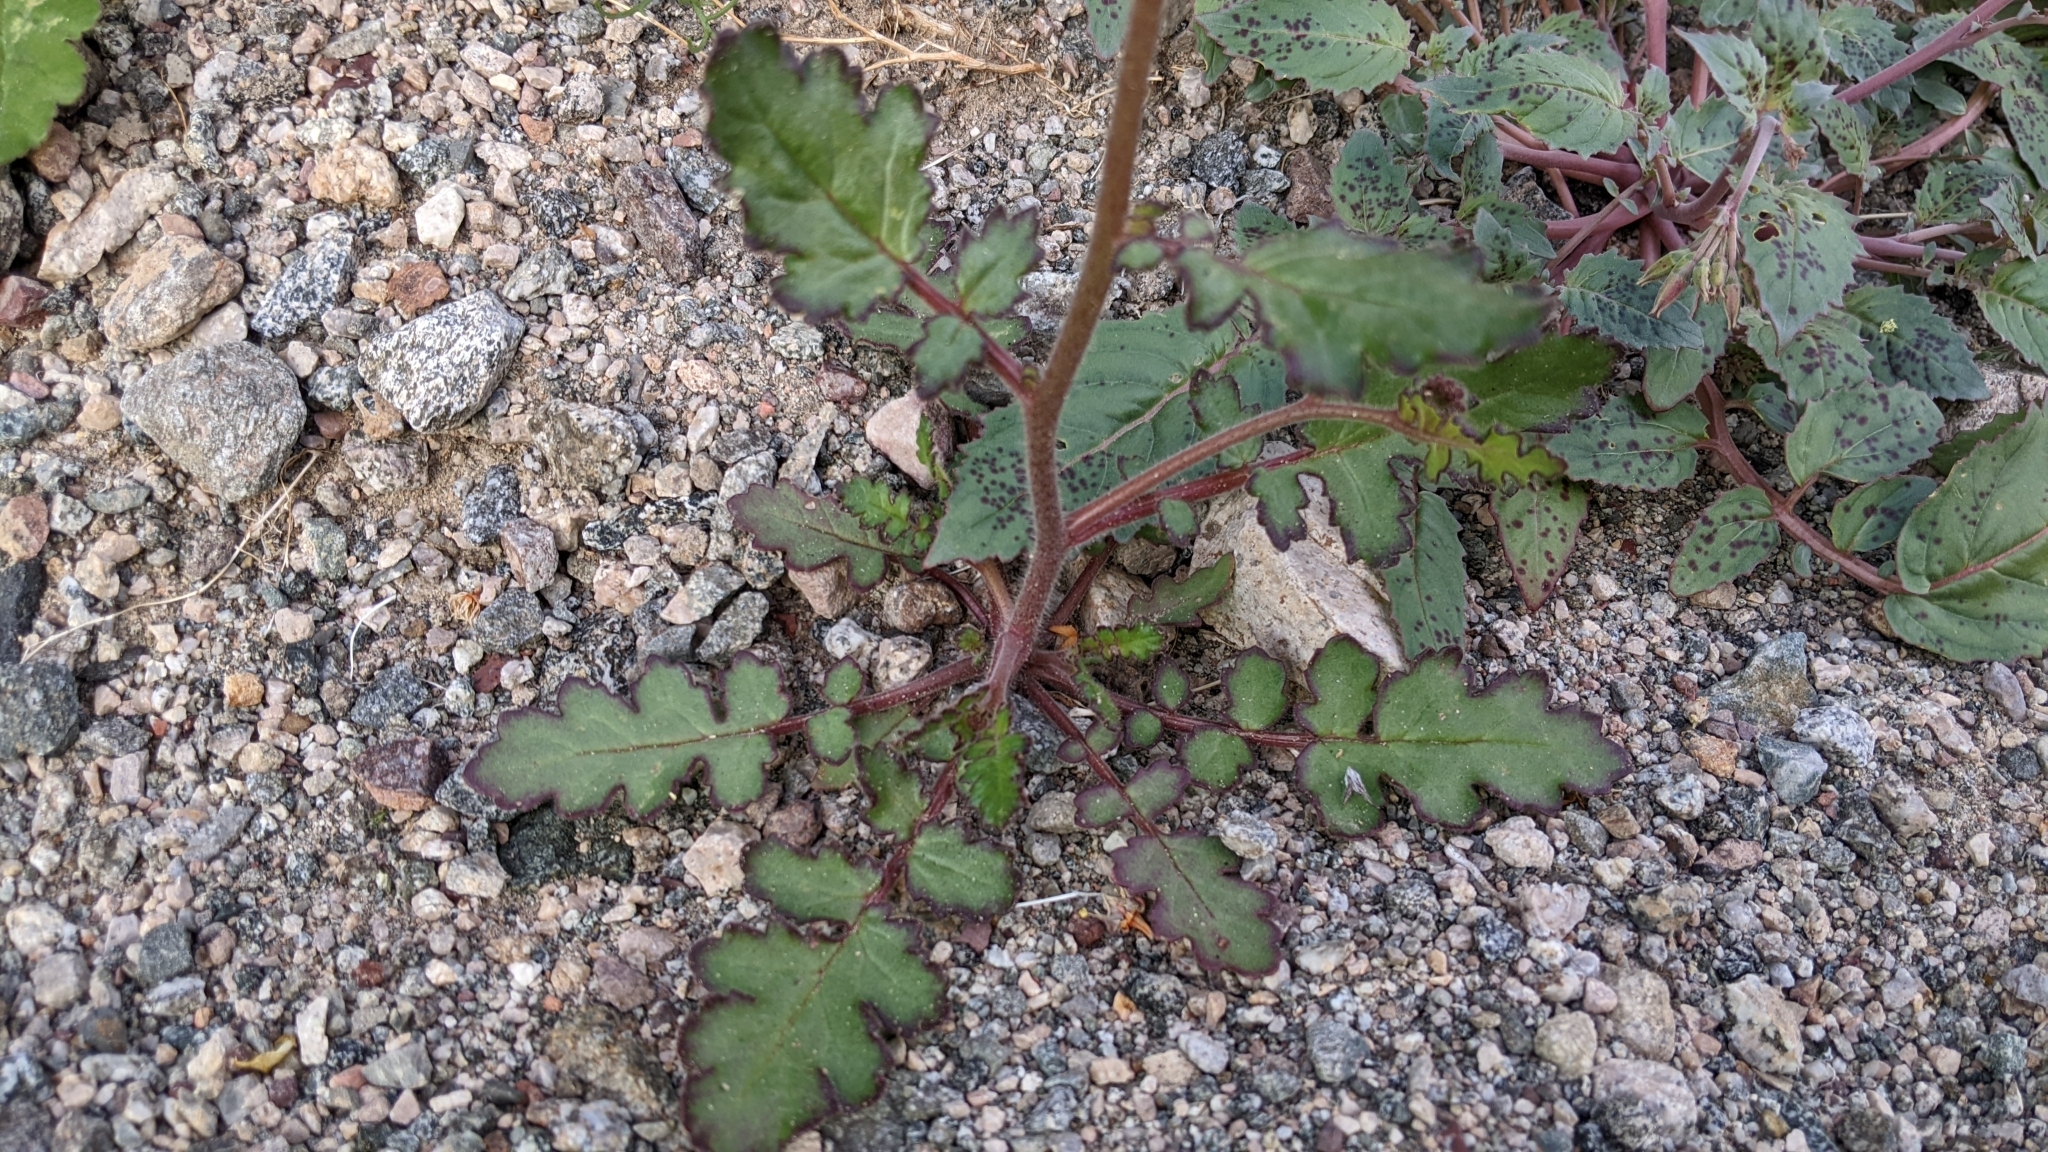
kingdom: Plantae
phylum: Tracheophyta
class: Magnoliopsida
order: Boraginales
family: Hydrophyllaceae
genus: Phacelia
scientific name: Phacelia crenulata
